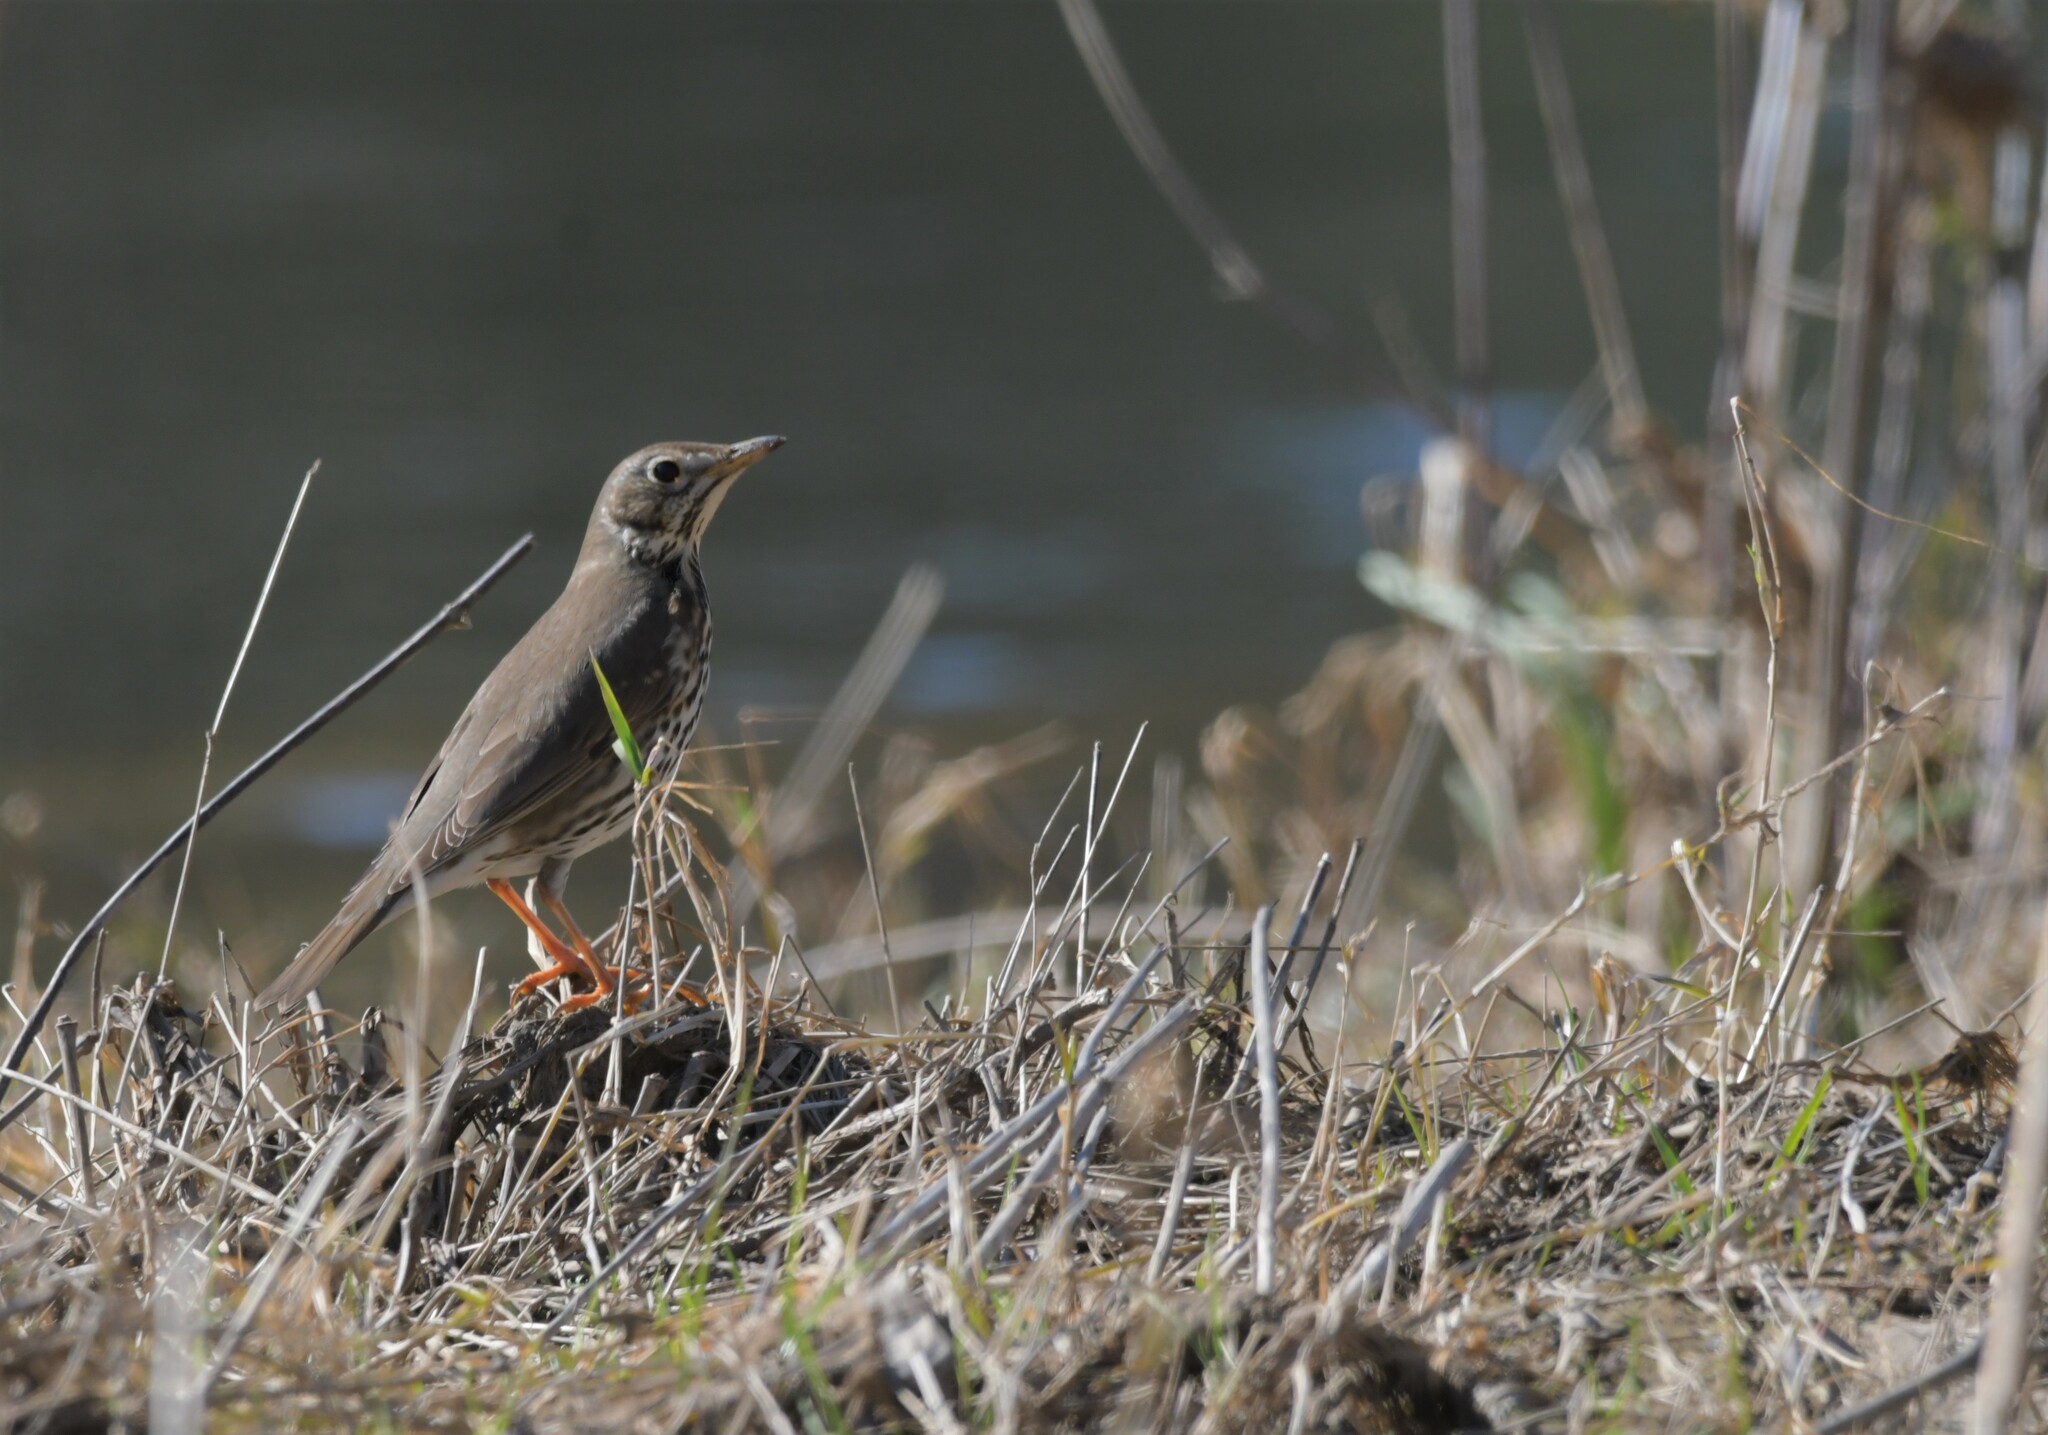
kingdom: Animalia
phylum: Chordata
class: Aves
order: Passeriformes
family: Turdidae
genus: Turdus
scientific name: Turdus philomelos
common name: Song thrush
